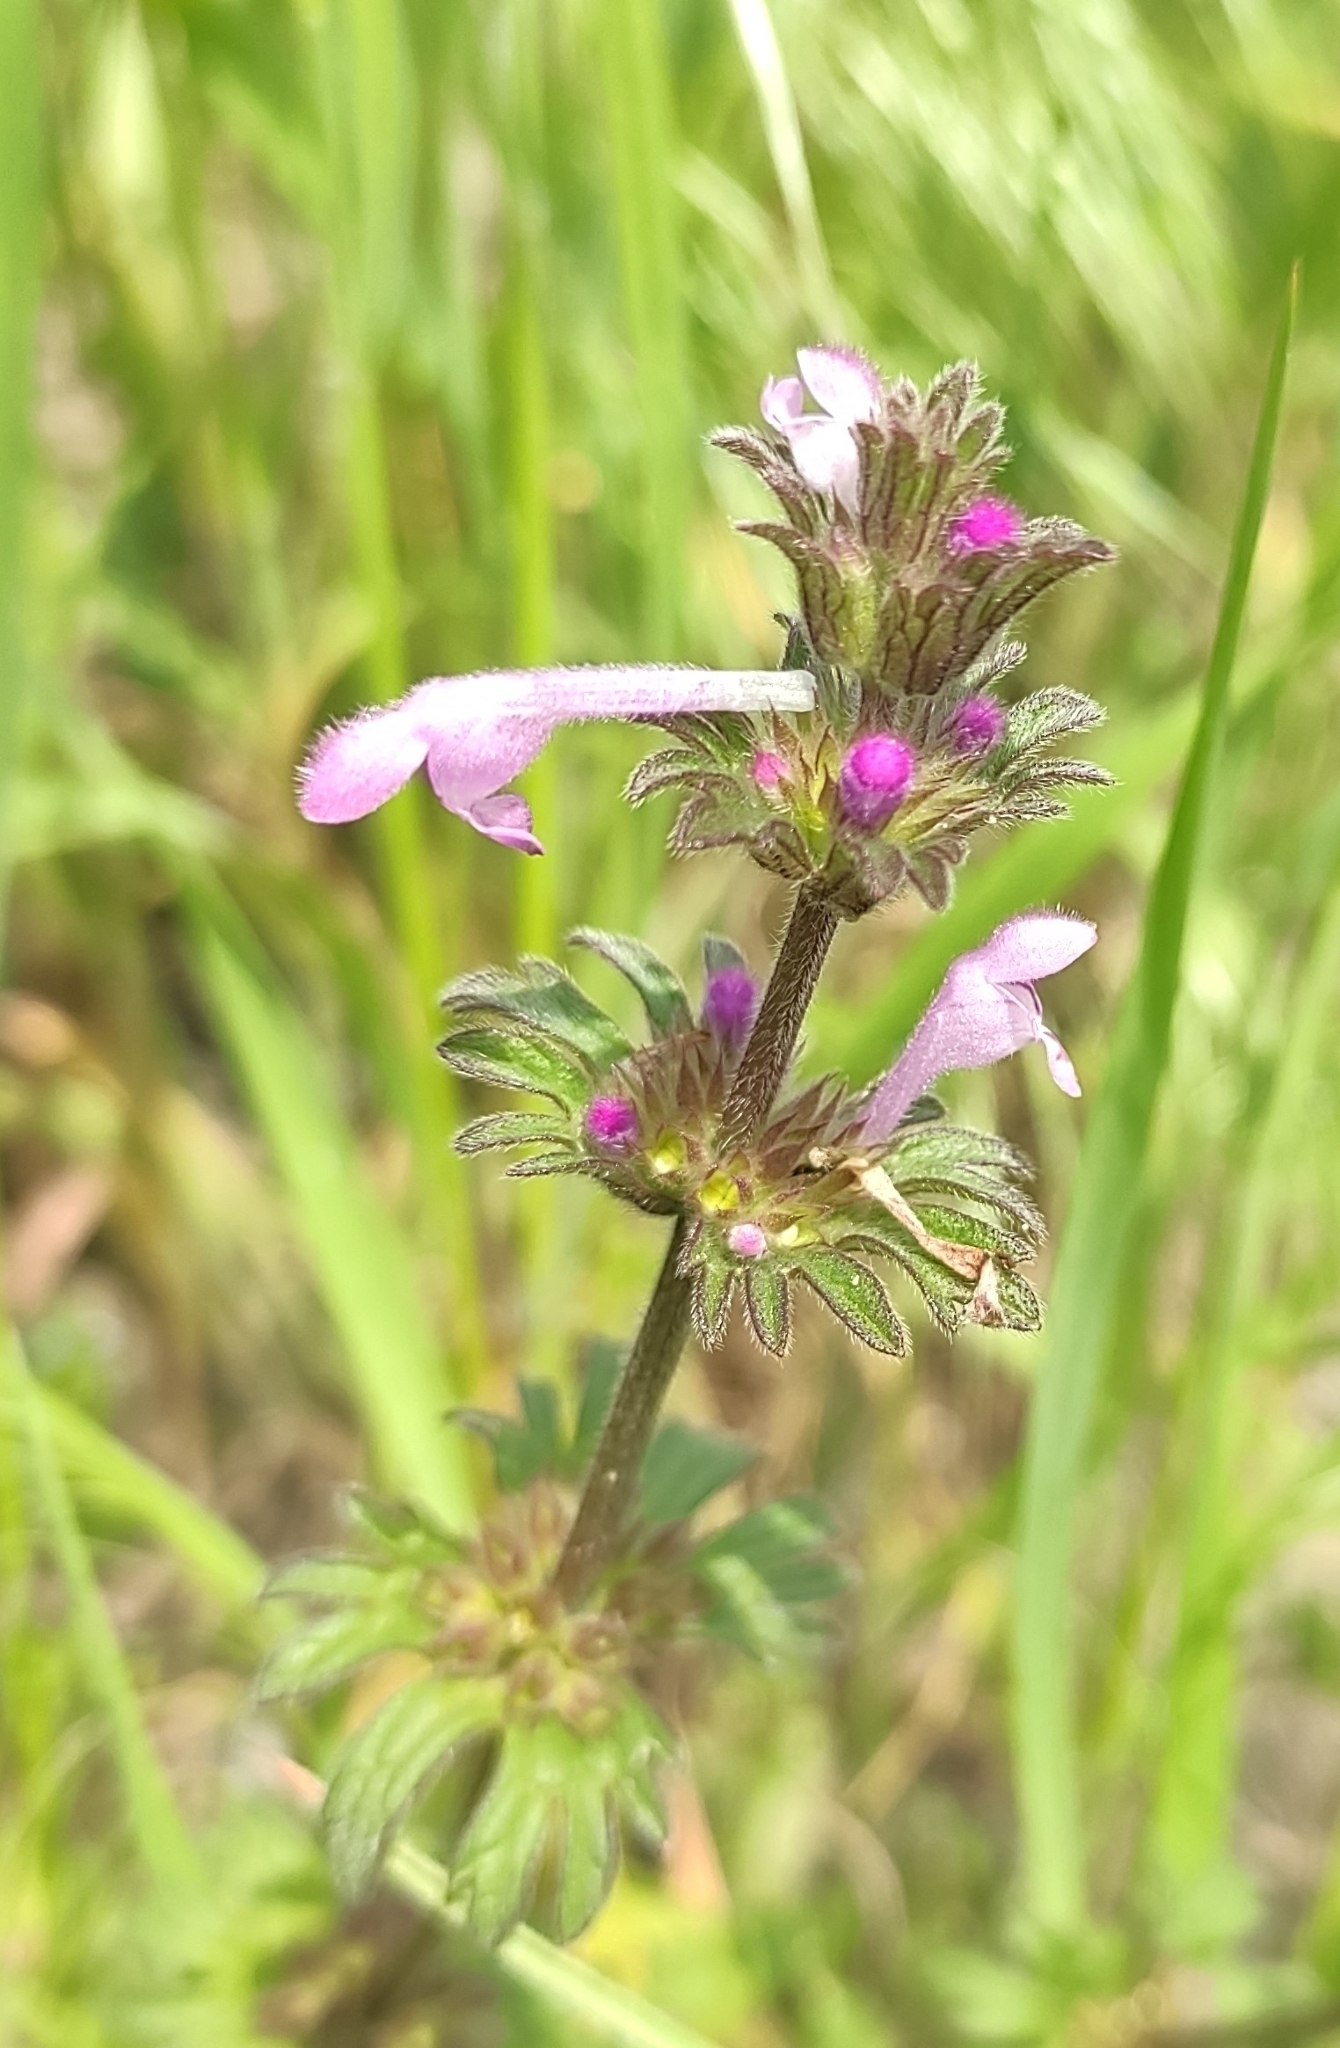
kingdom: Plantae
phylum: Tracheophyta
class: Magnoliopsida
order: Lamiales
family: Lamiaceae
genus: Lamium
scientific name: Lamium amplexicaule
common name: Henbit dead-nettle
